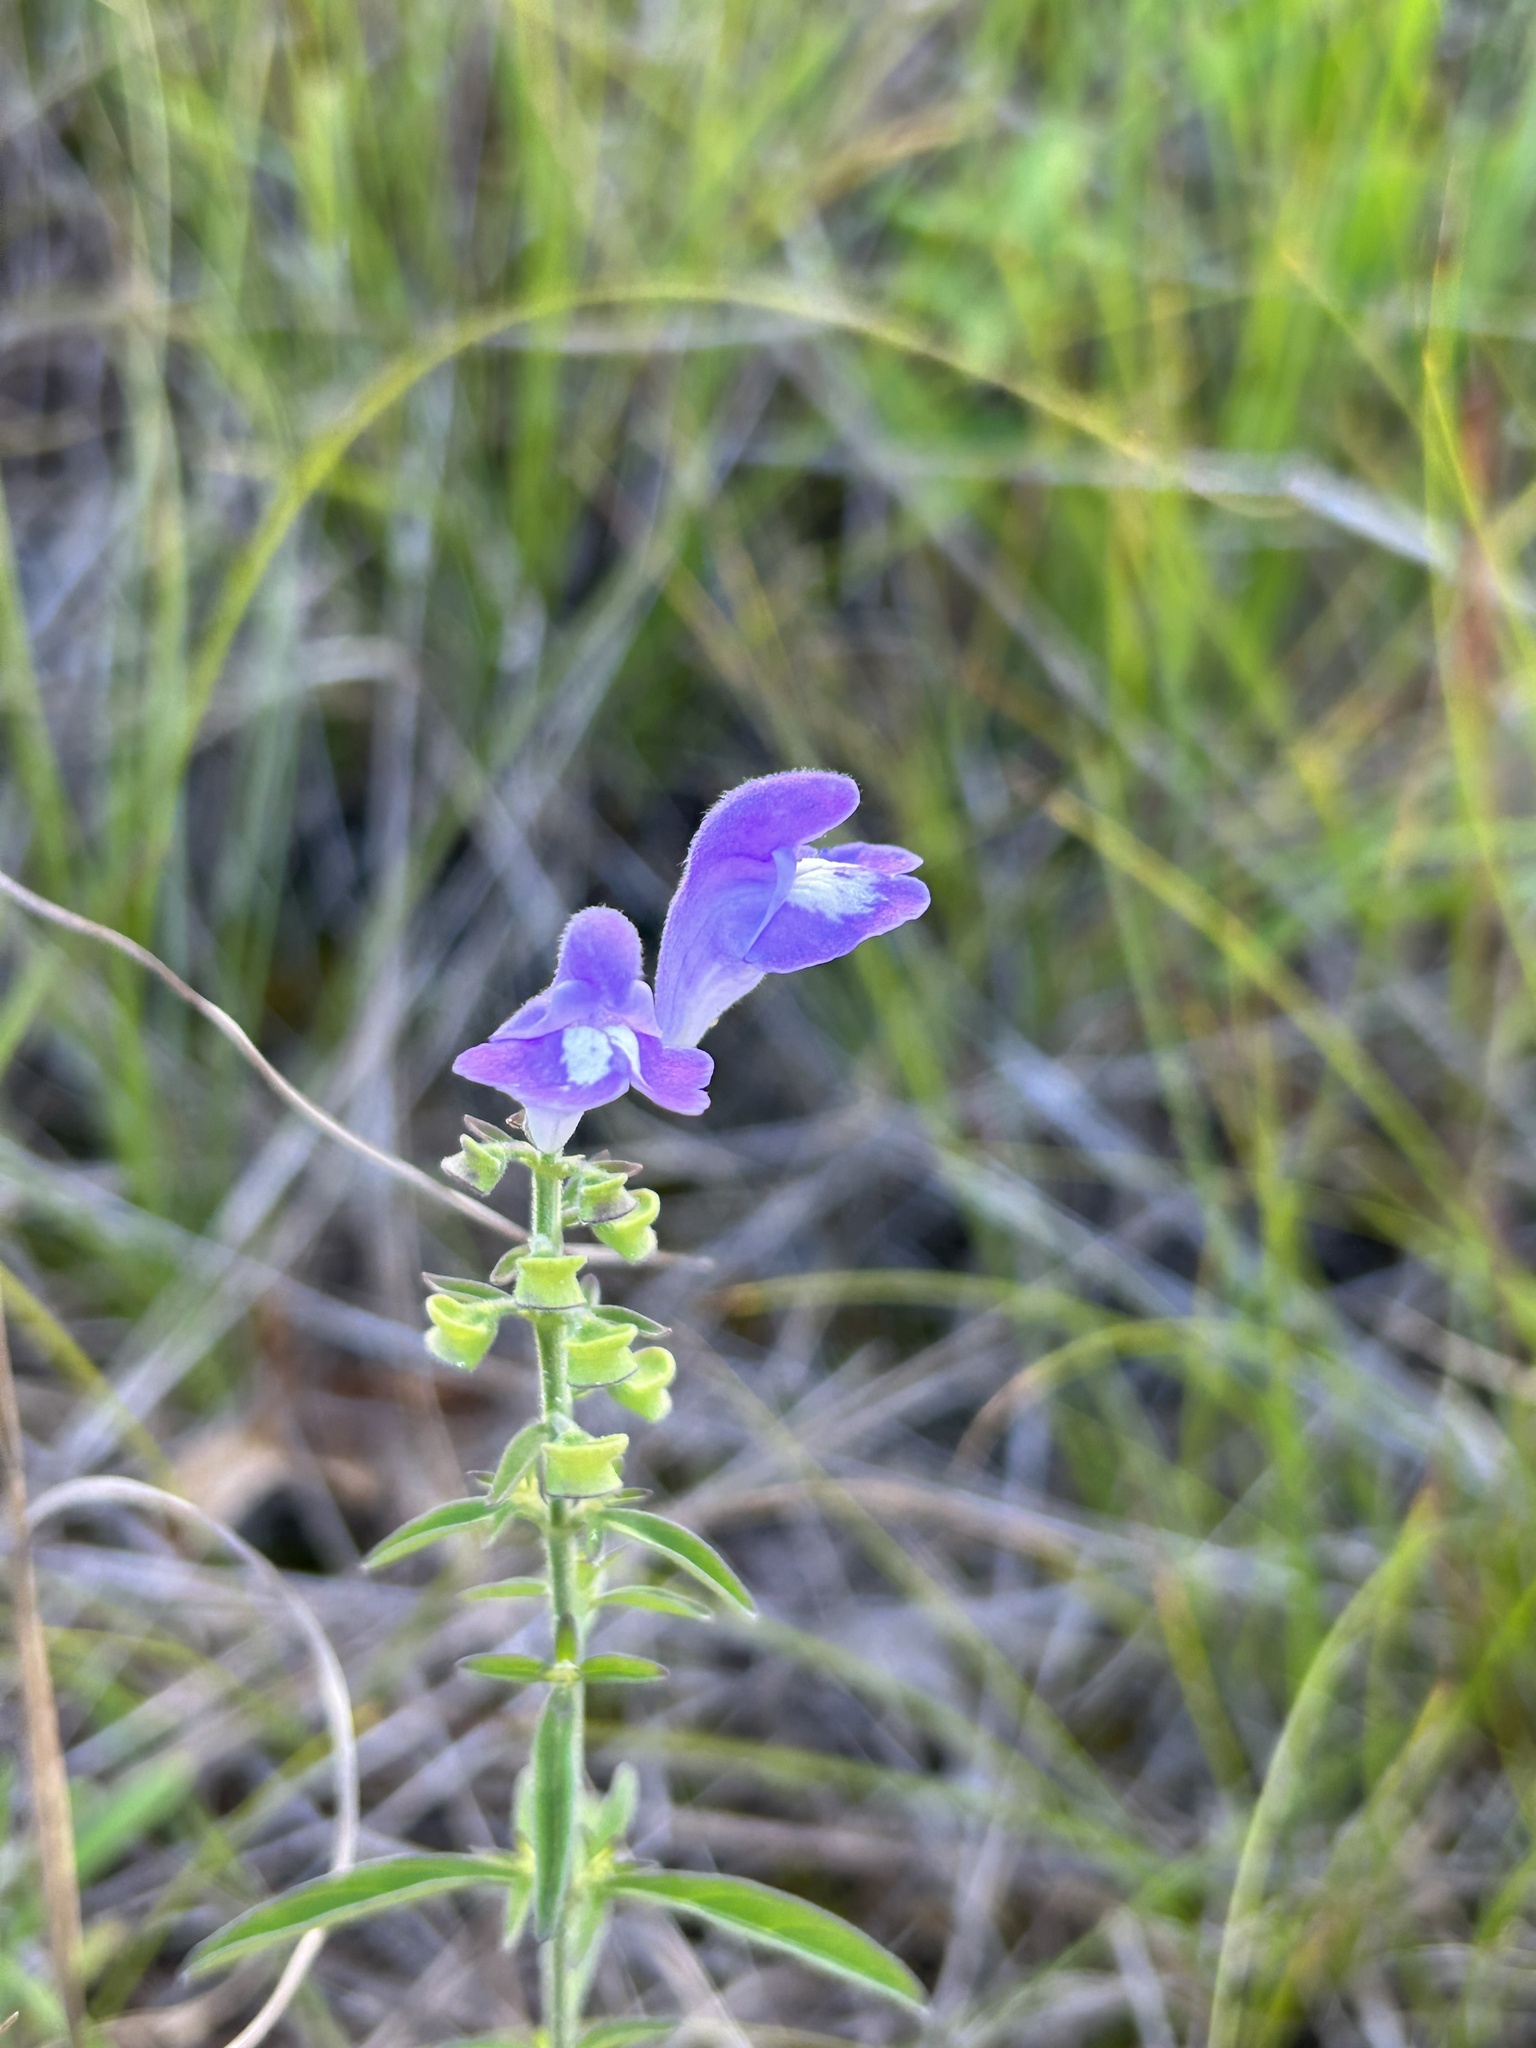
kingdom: Plantae
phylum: Tracheophyta
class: Magnoliopsida
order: Lamiales
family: Lamiaceae
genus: Scutellaria
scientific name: Scutellaria integrifolia
